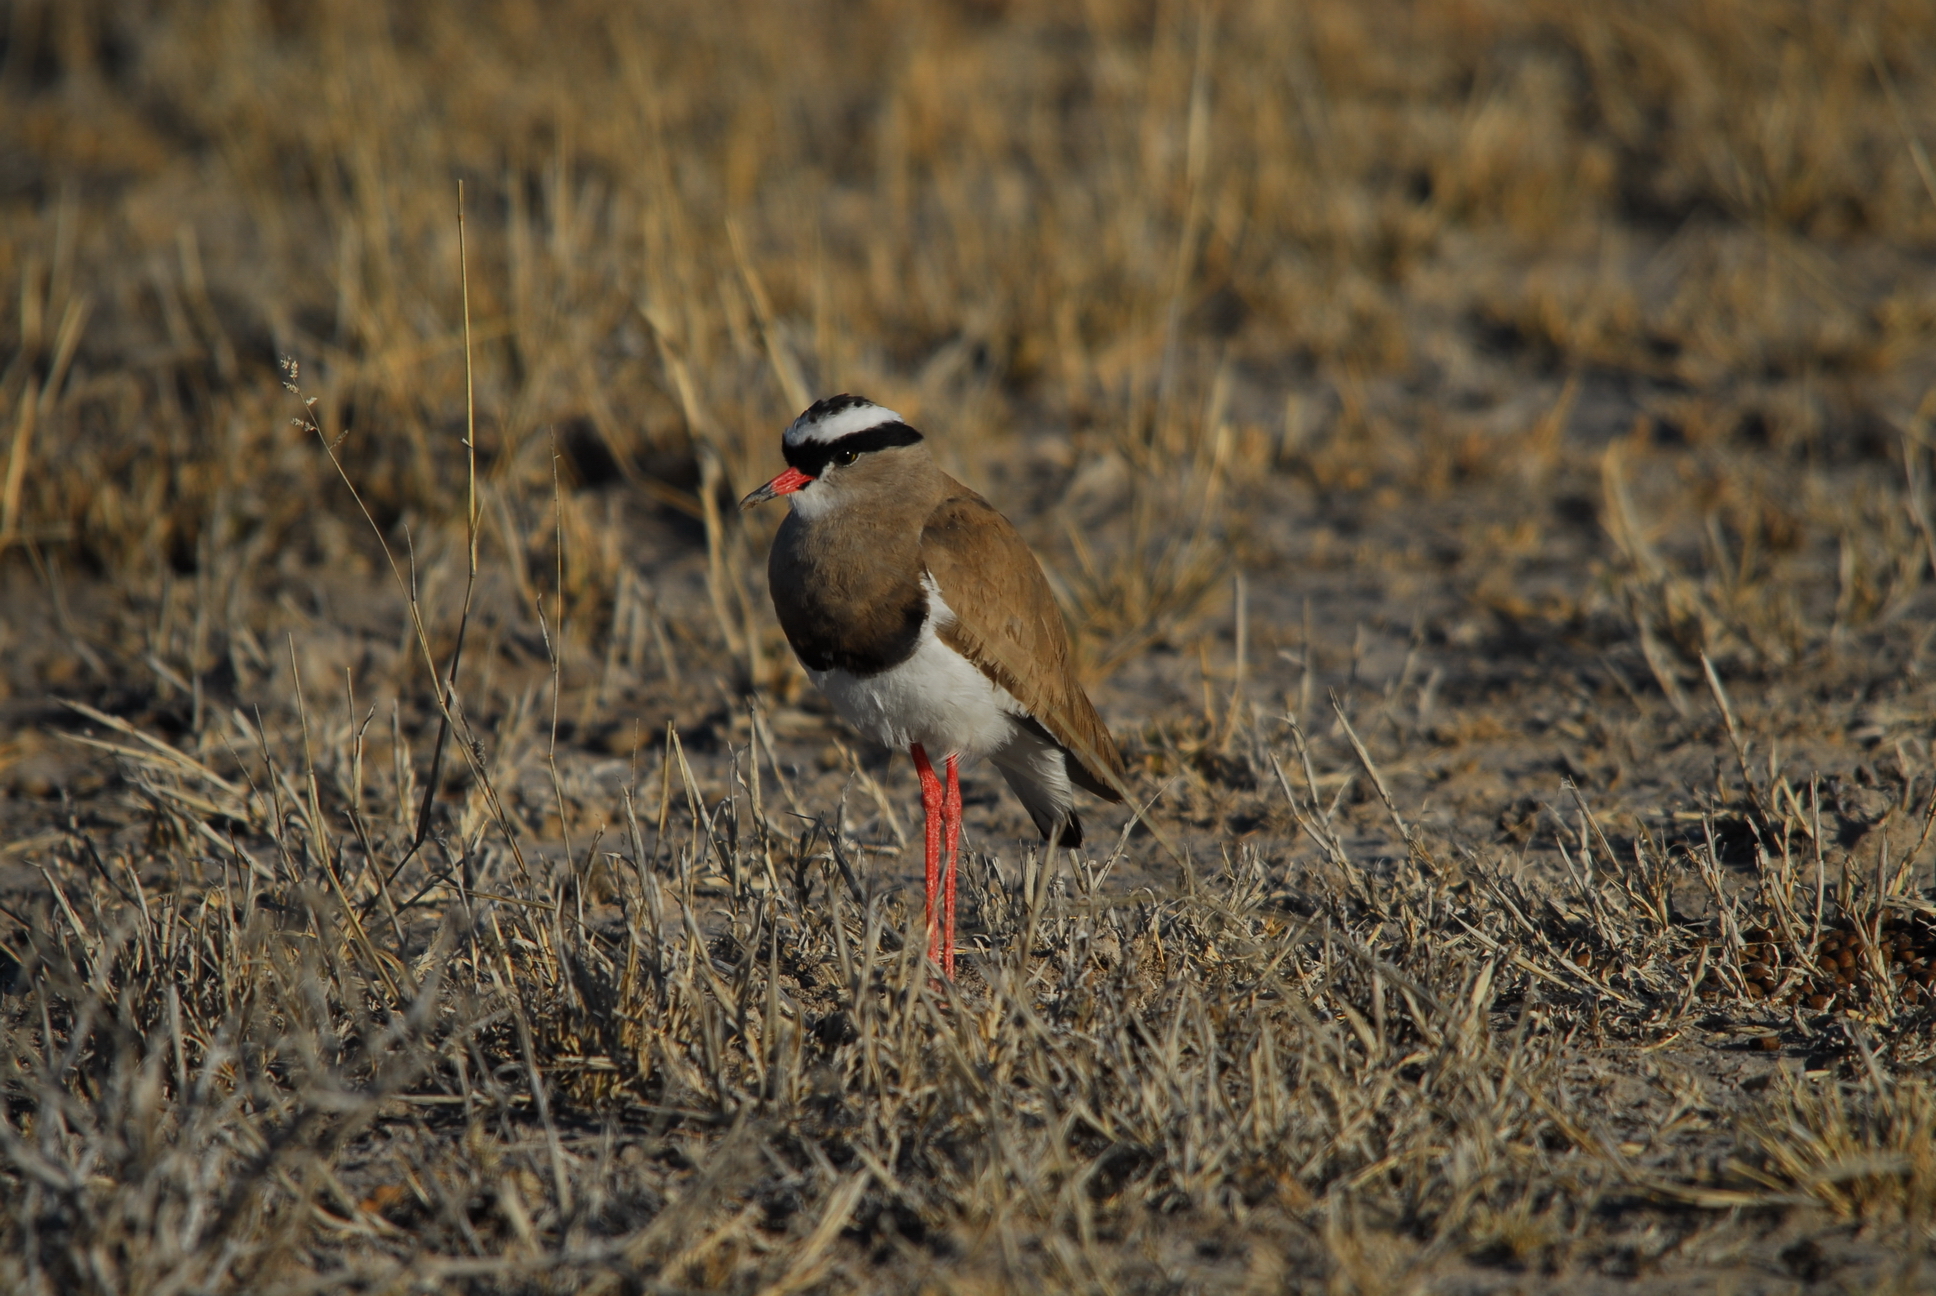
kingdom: Animalia
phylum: Chordata
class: Aves
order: Charadriiformes
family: Charadriidae
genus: Vanellus
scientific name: Vanellus coronatus
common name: Crowned lapwing
